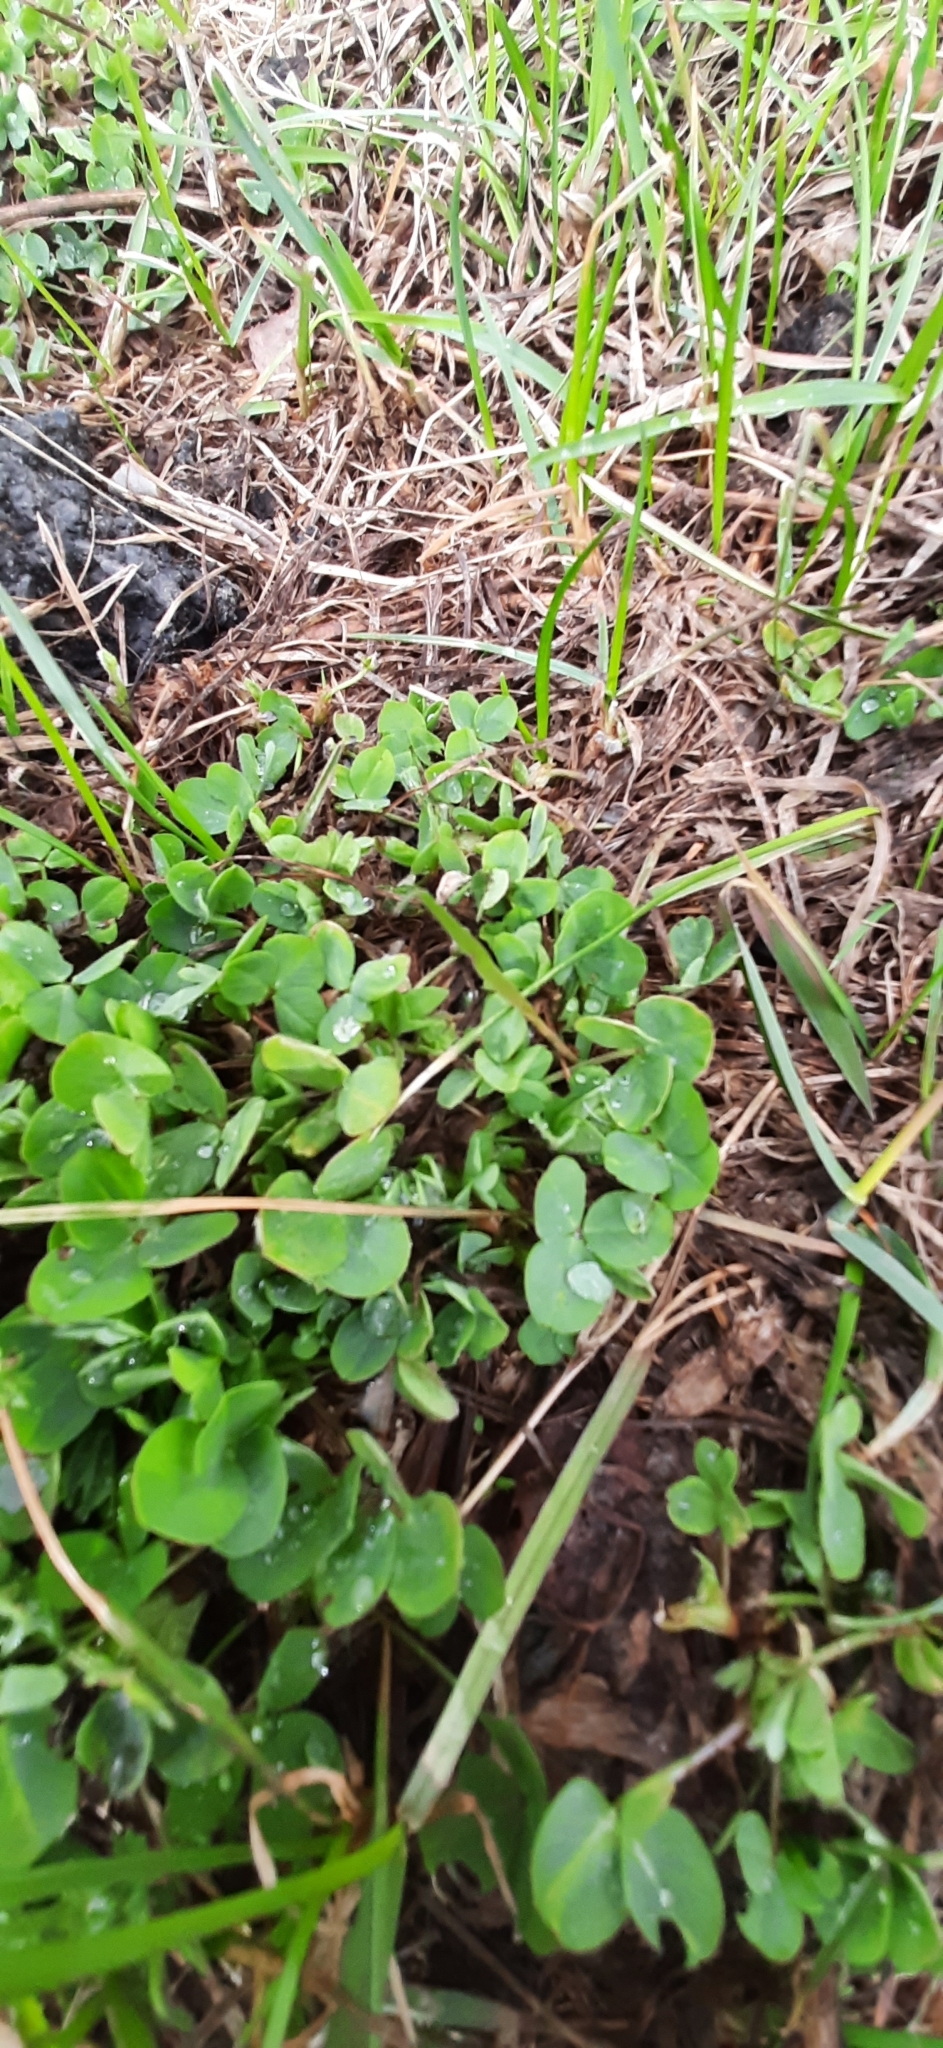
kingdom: Plantae
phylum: Tracheophyta
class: Magnoliopsida
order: Fabales
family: Fabaceae
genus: Trifolium
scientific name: Trifolium repens
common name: White clover
